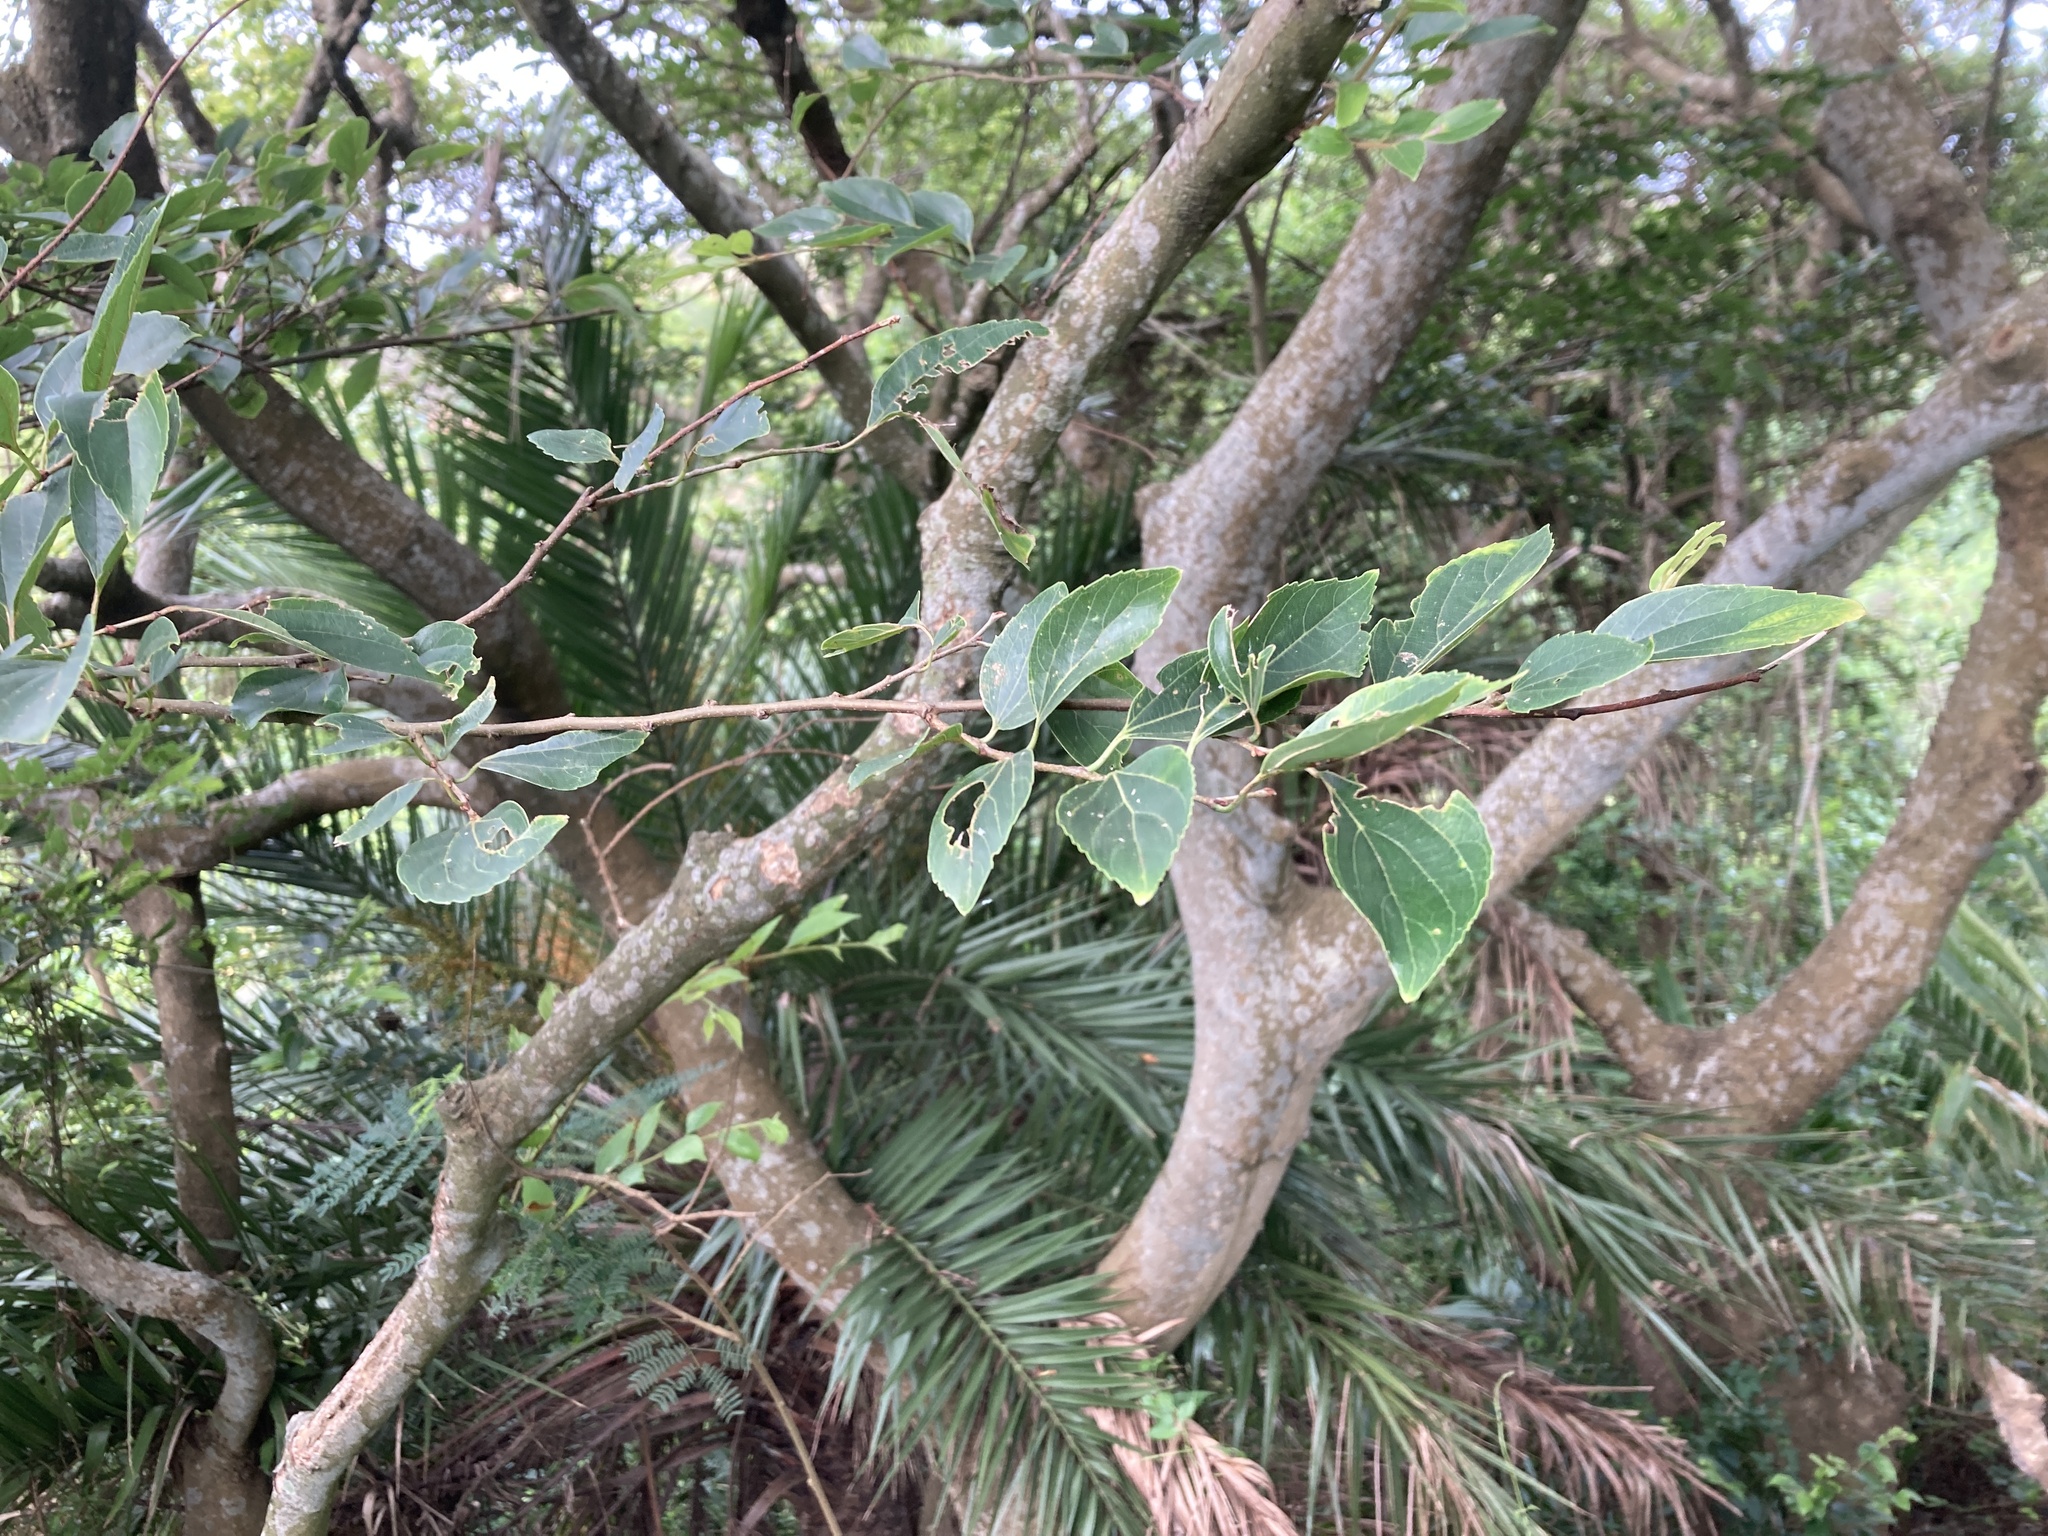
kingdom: Plantae
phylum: Tracheophyta
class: Magnoliopsida
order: Rosales
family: Cannabaceae
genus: Celtis
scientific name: Celtis sinensis
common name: Chinese hackberry
